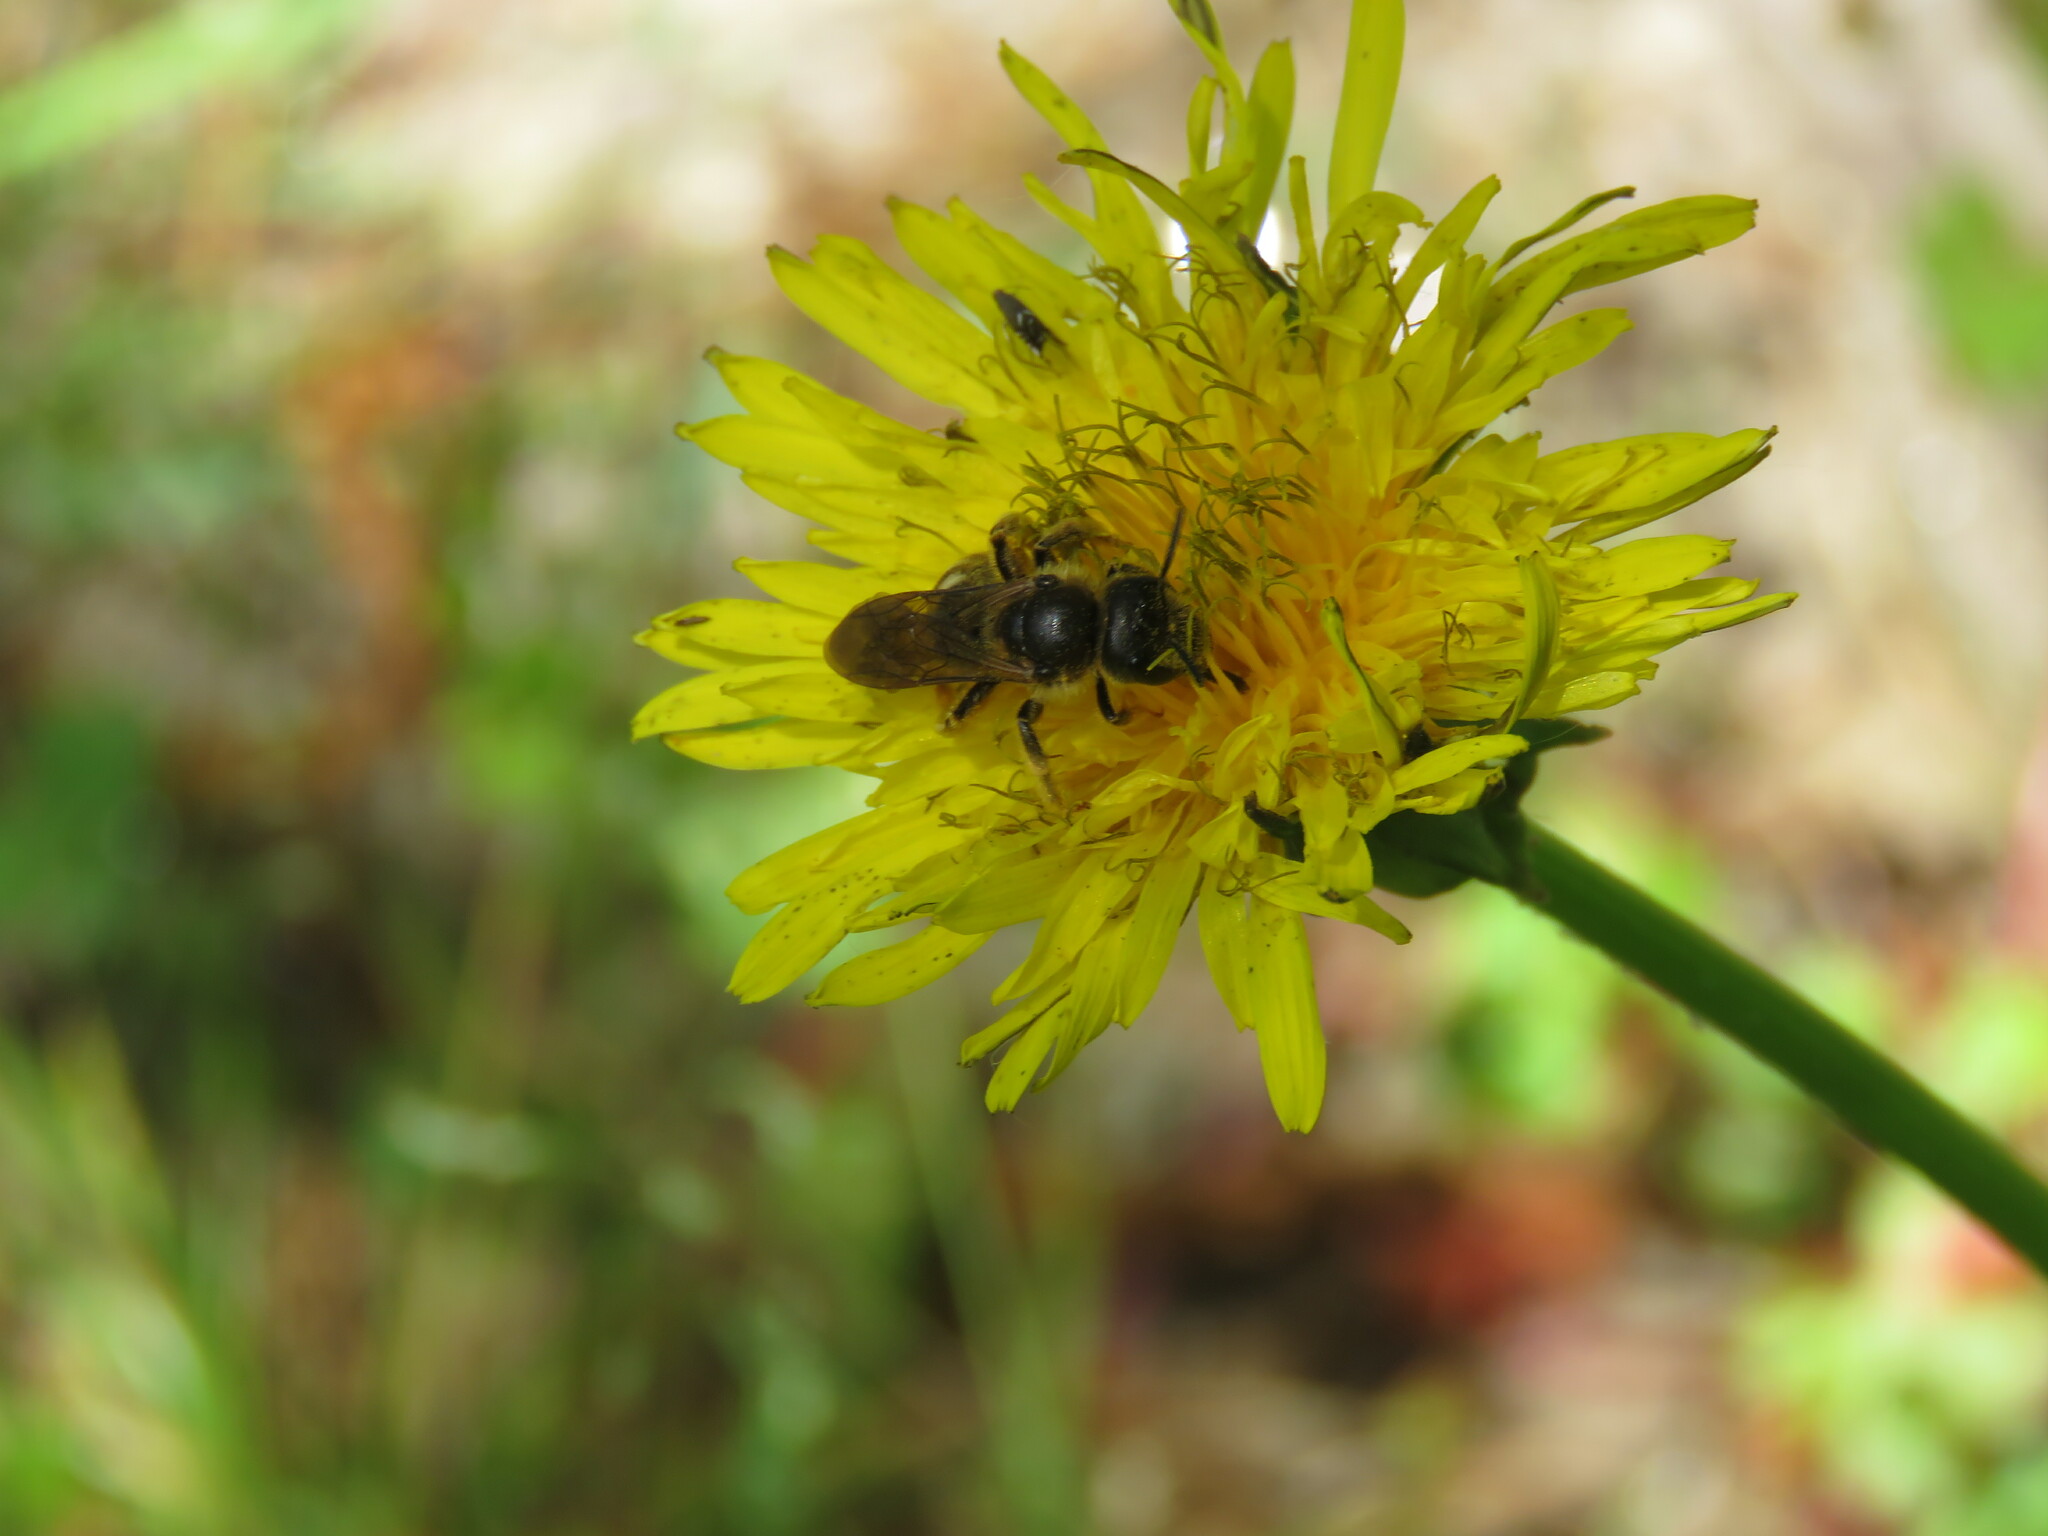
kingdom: Animalia
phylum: Arthropoda
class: Insecta
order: Hymenoptera
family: Halictidae
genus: Halictus
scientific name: Halictus scabiosae
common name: Great banded furrow bee
